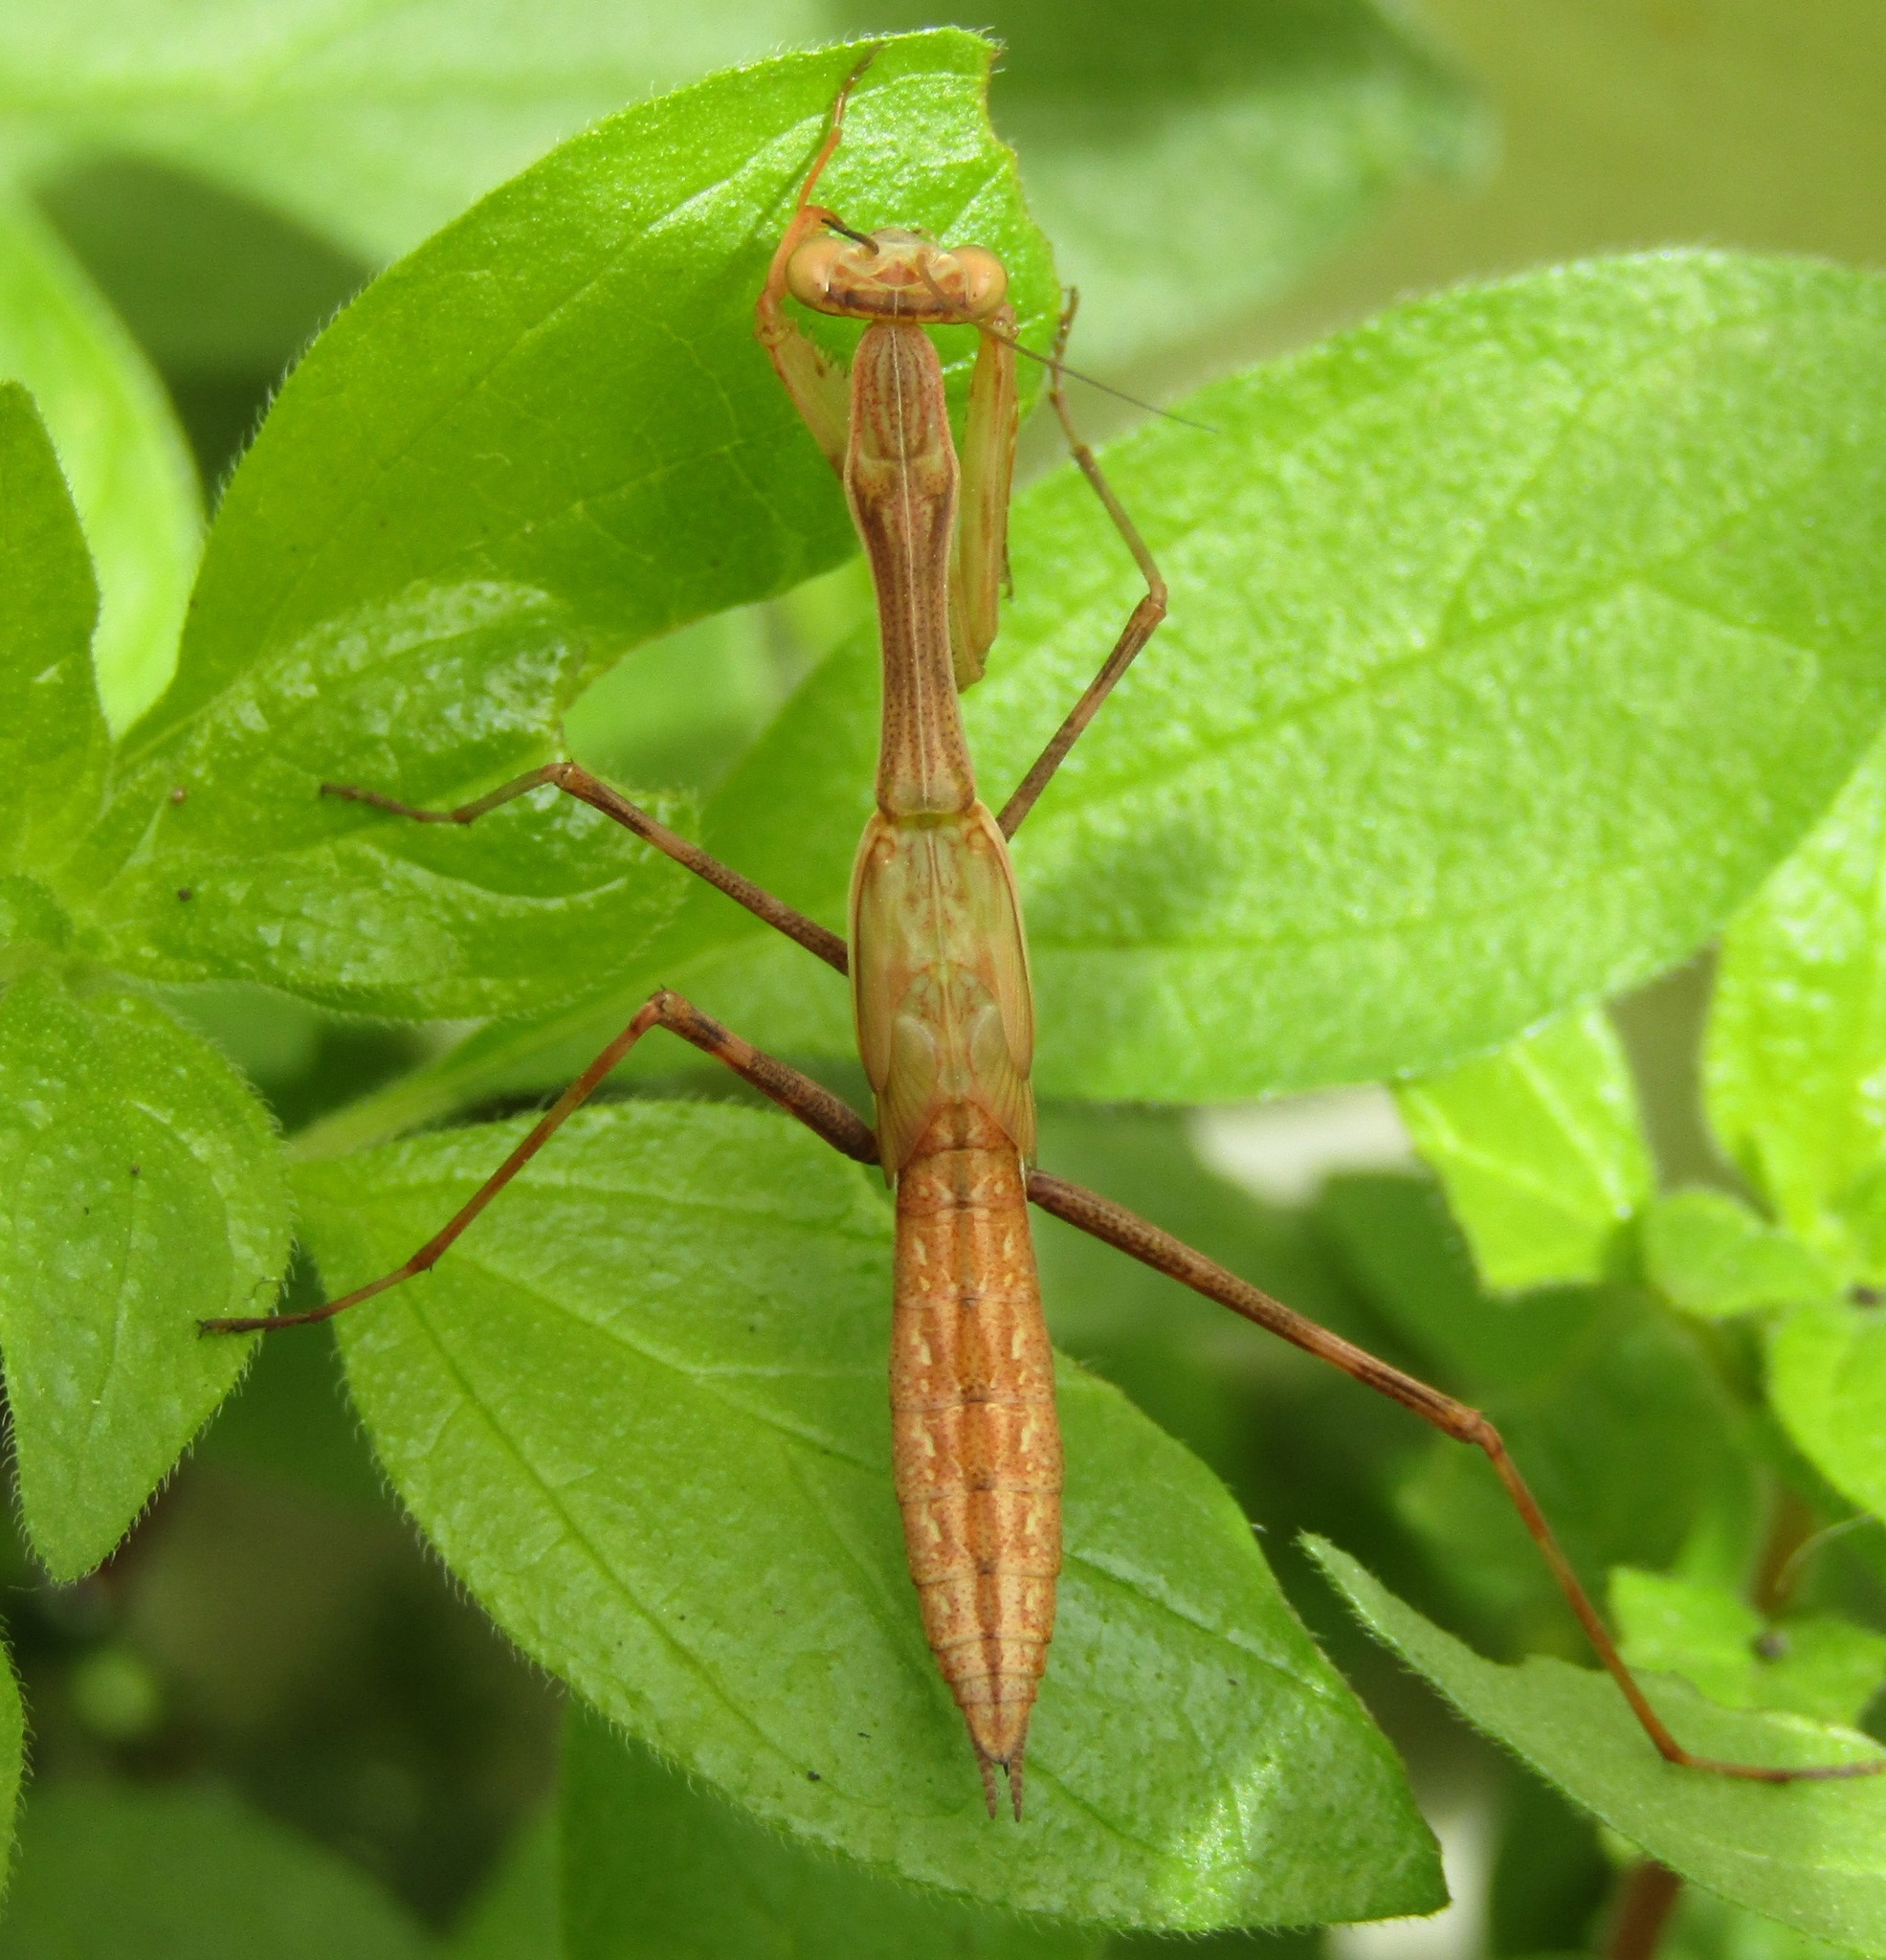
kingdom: Animalia
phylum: Arthropoda
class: Insecta
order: Mantodea
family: Miomantidae
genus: Miomantis
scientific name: Miomantis caffra
